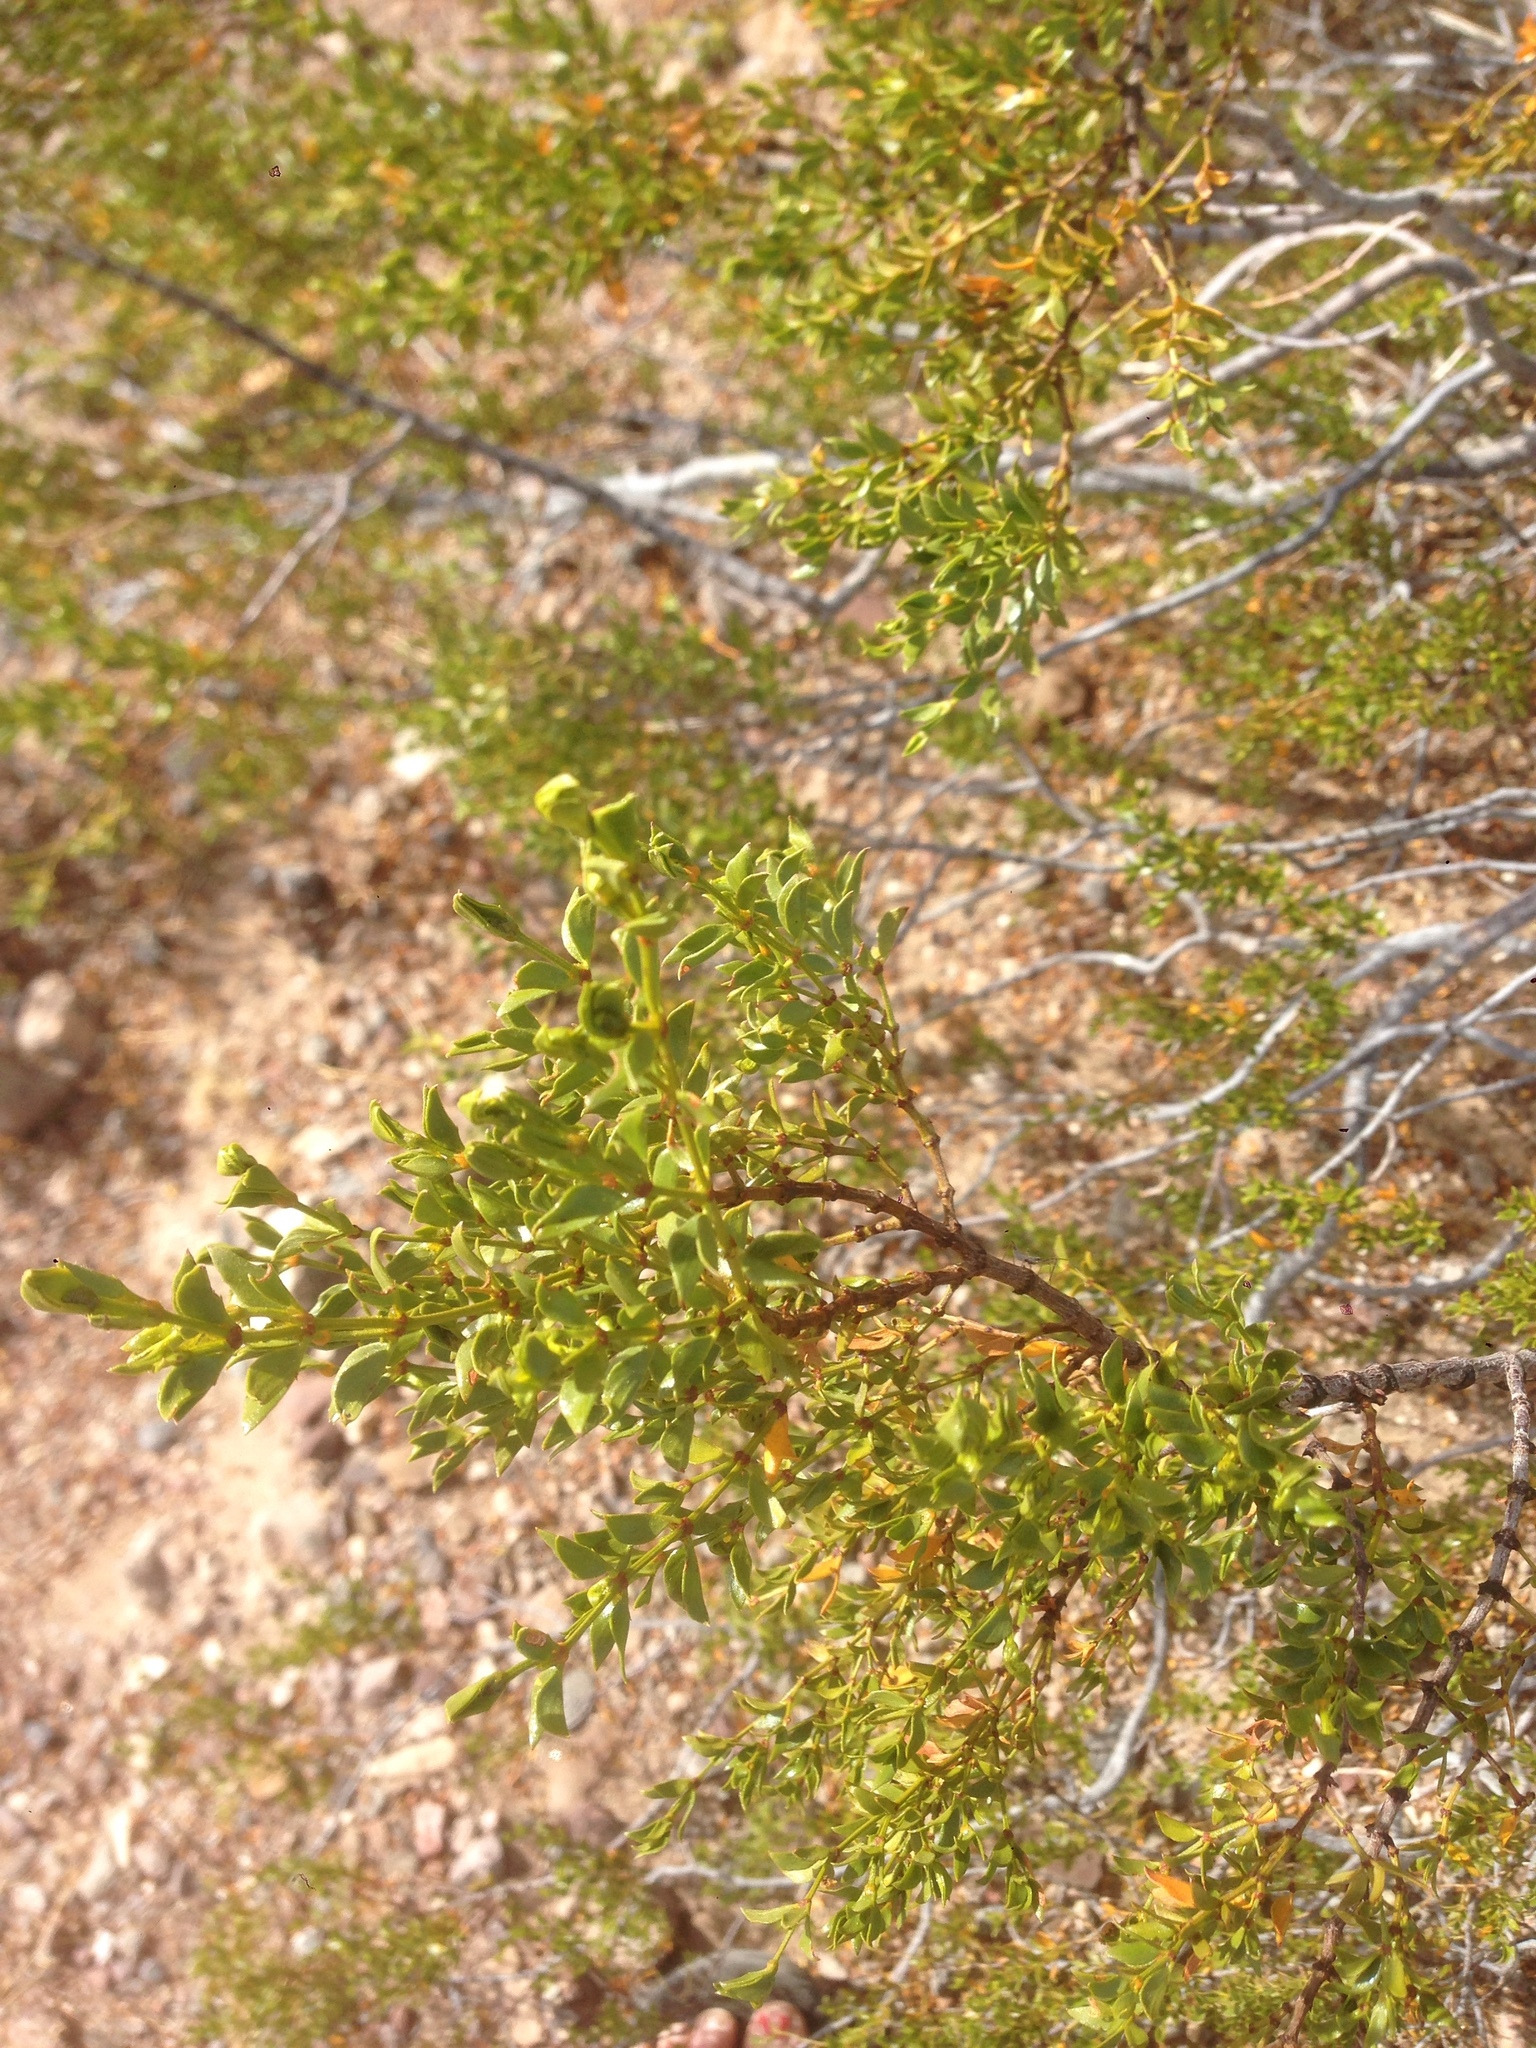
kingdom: Plantae
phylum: Tracheophyta
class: Magnoliopsida
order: Zygophyllales
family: Zygophyllaceae
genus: Larrea
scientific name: Larrea tridentata
